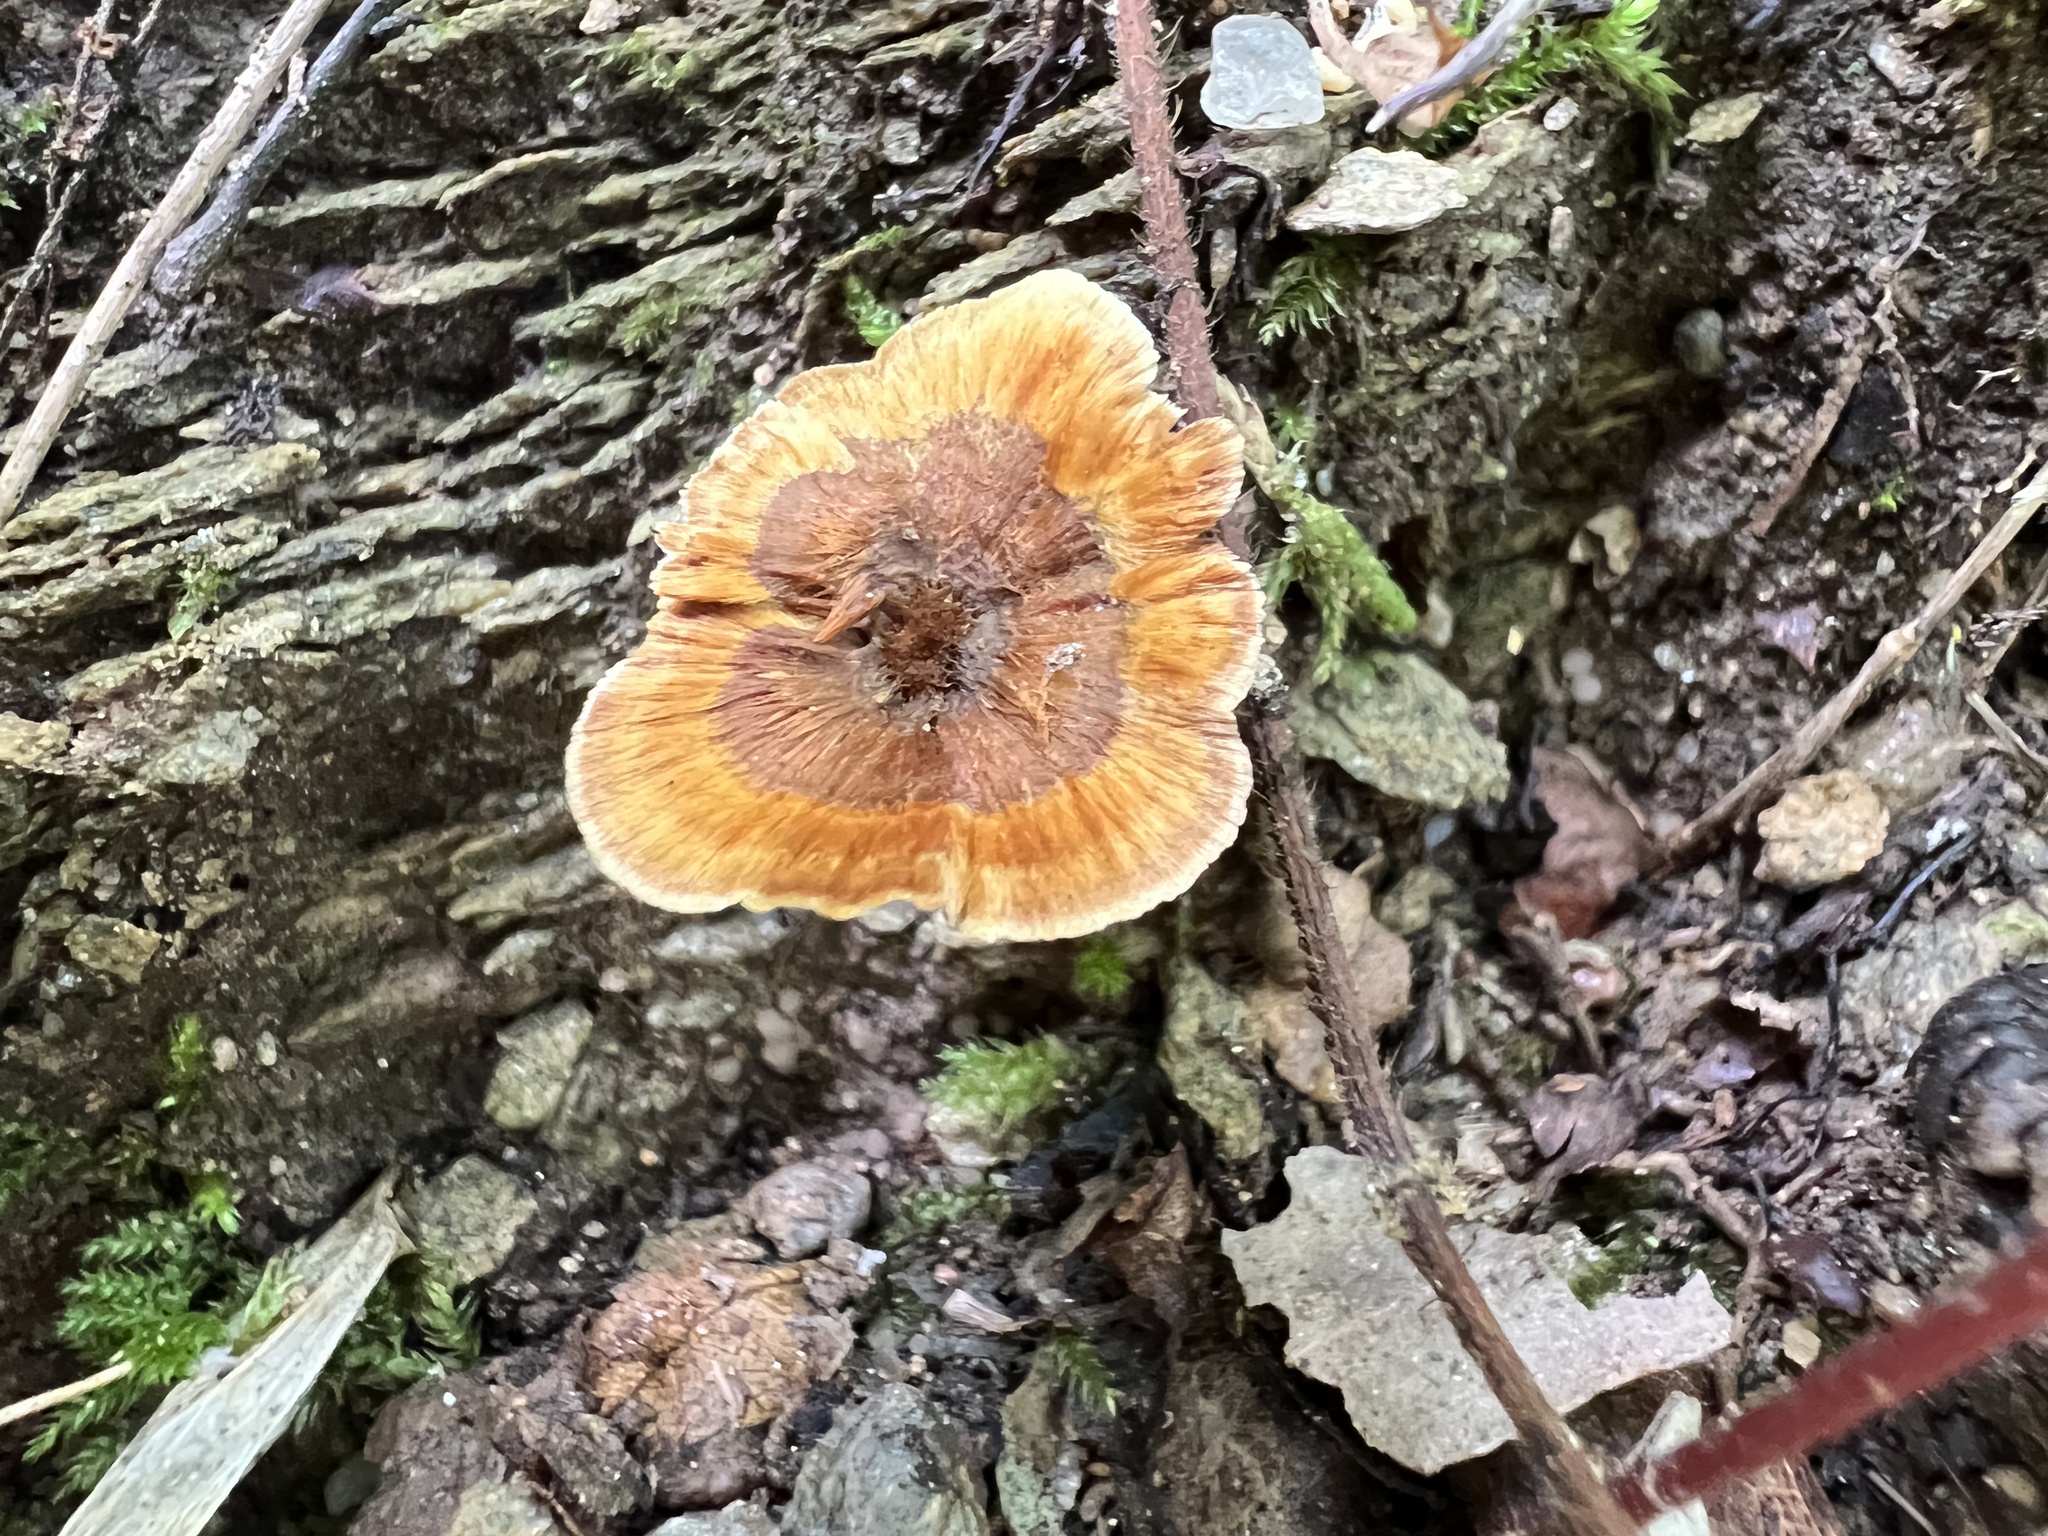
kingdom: Fungi
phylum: Basidiomycota
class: Agaricomycetes
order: Hymenochaetales
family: Hymenochaetaceae
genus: Coltricia
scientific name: Coltricia cinnamomea
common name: Shiny cinnamon polypore
